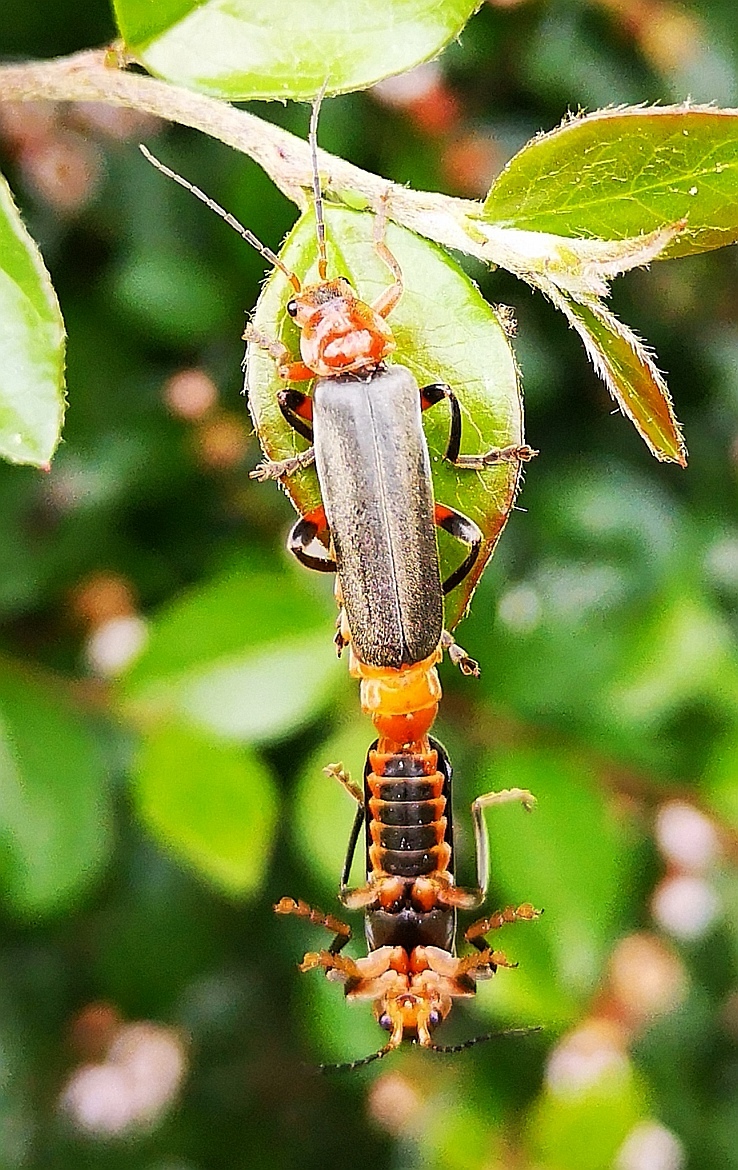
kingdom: Animalia
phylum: Arthropoda
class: Insecta
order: Coleoptera
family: Cantharidae
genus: Cantharis
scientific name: Cantharis livida
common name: Livid soldier beetle
